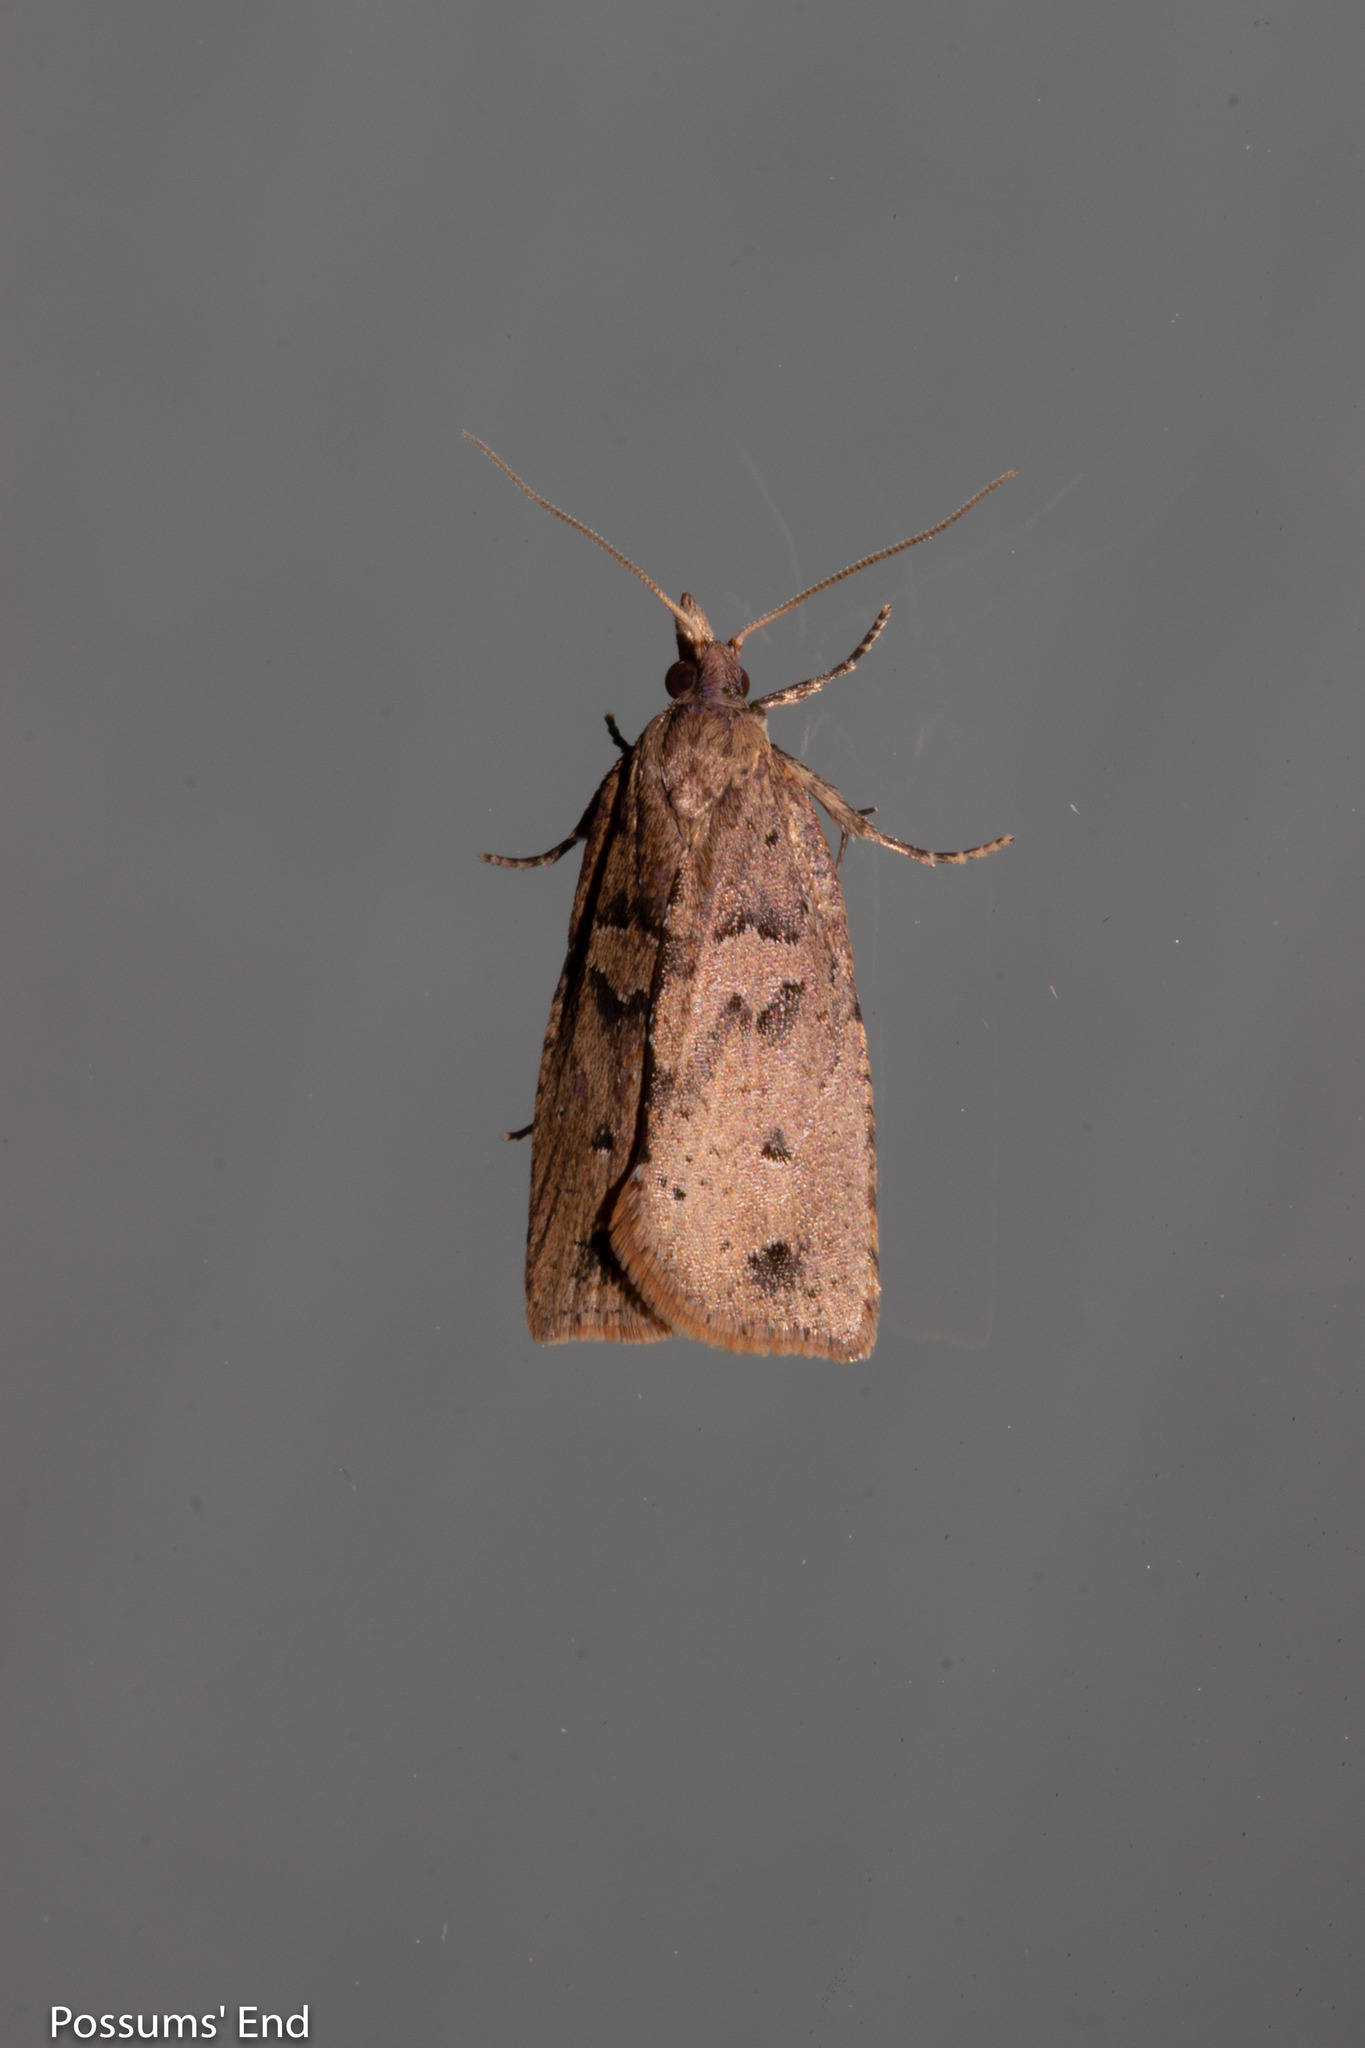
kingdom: Animalia
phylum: Arthropoda
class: Insecta
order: Lepidoptera
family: Tortricidae
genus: Planotortrix
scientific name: Planotortrix notophaea
